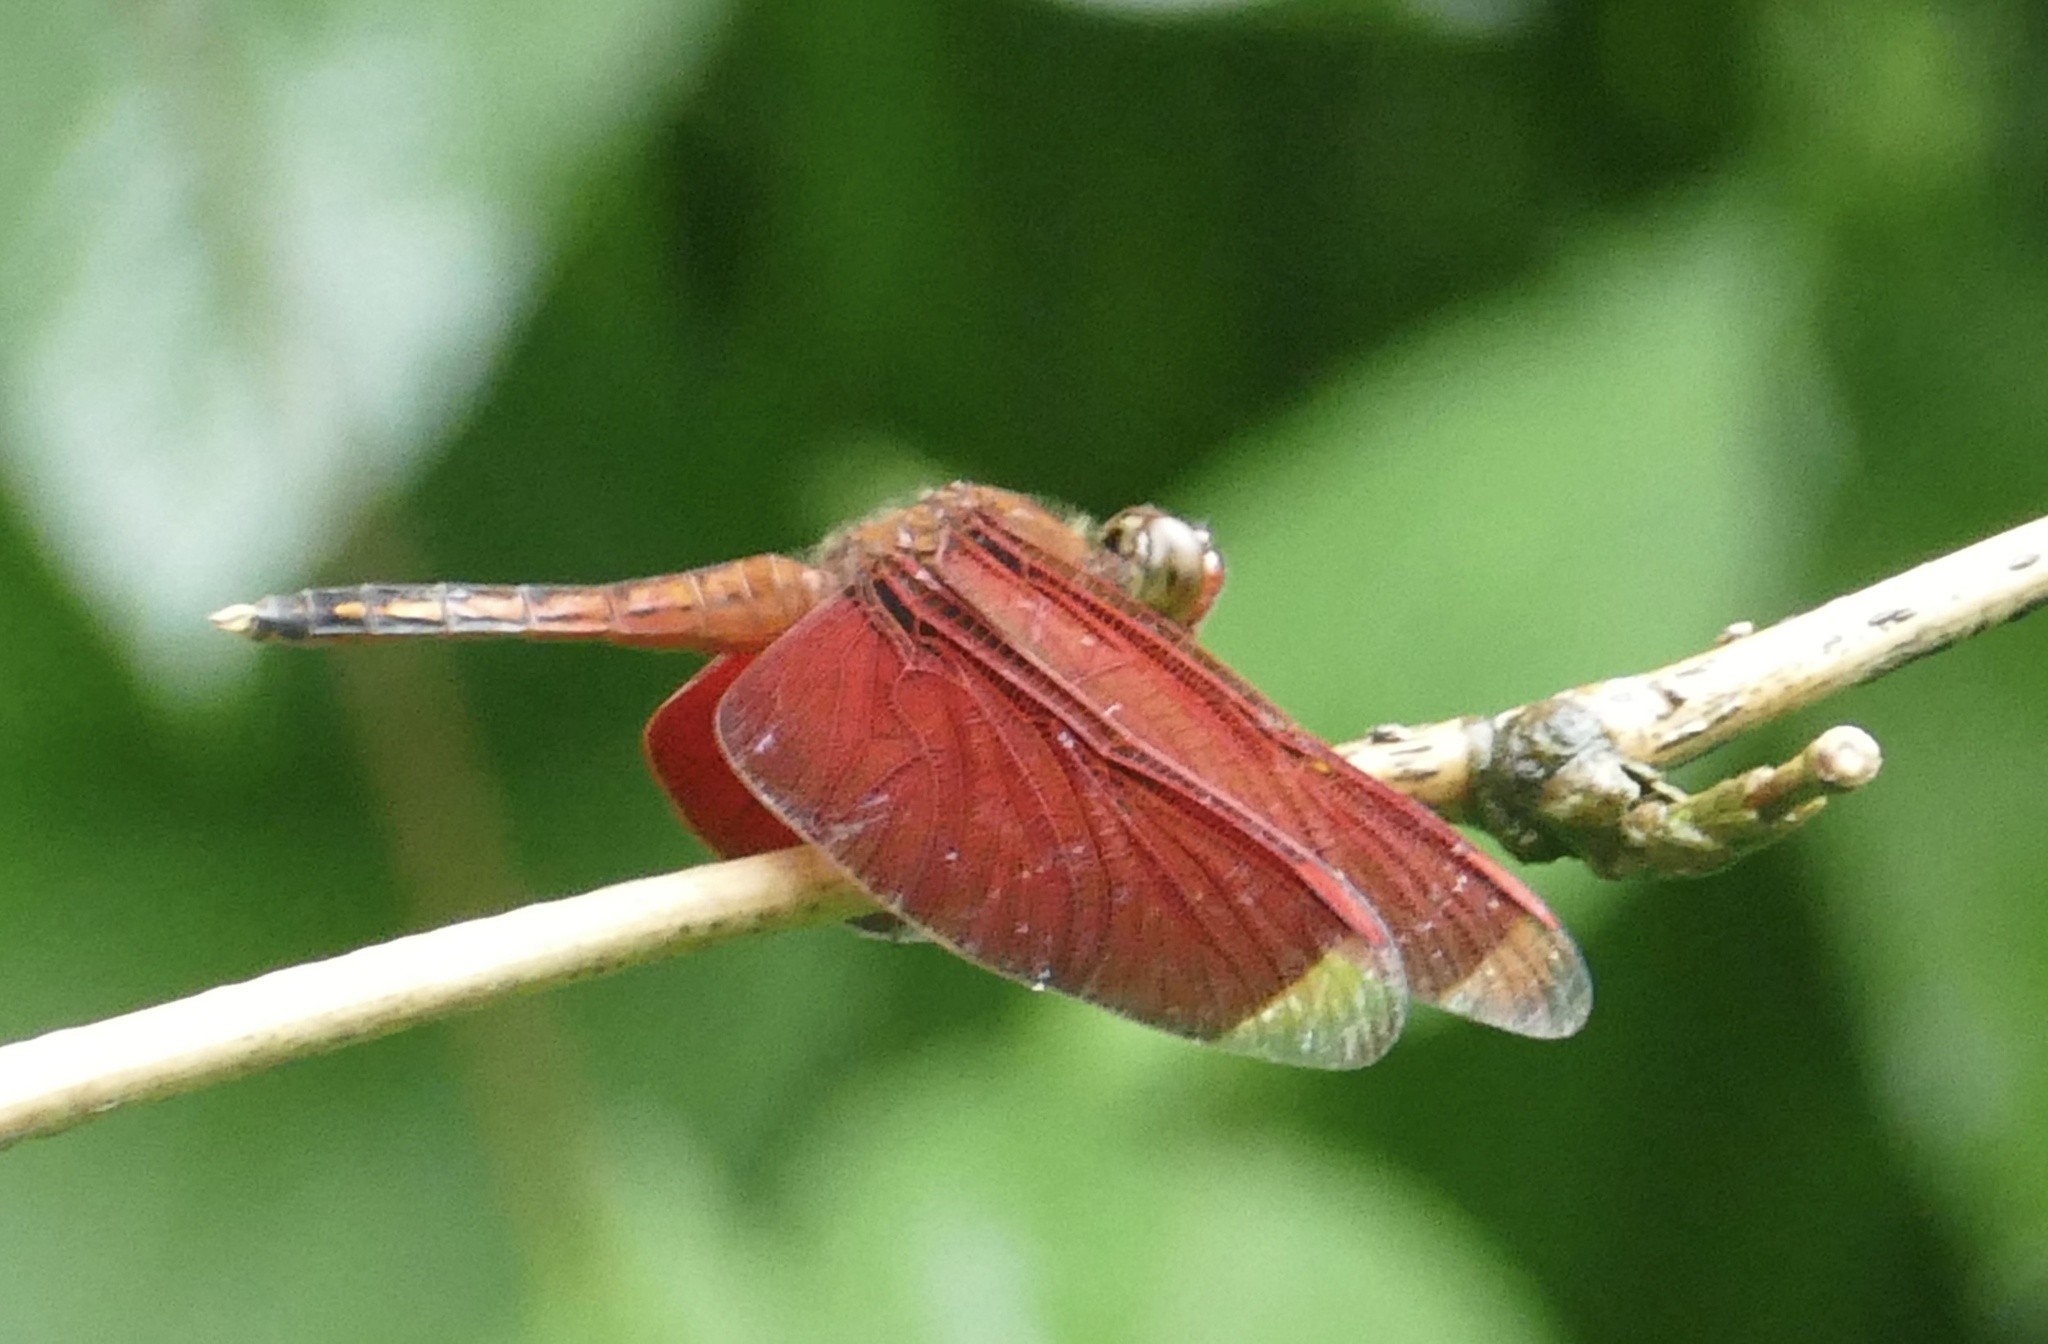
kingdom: Animalia
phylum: Arthropoda
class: Insecta
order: Odonata
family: Libellulidae
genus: Neurothemis
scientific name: Neurothemis manadensis
